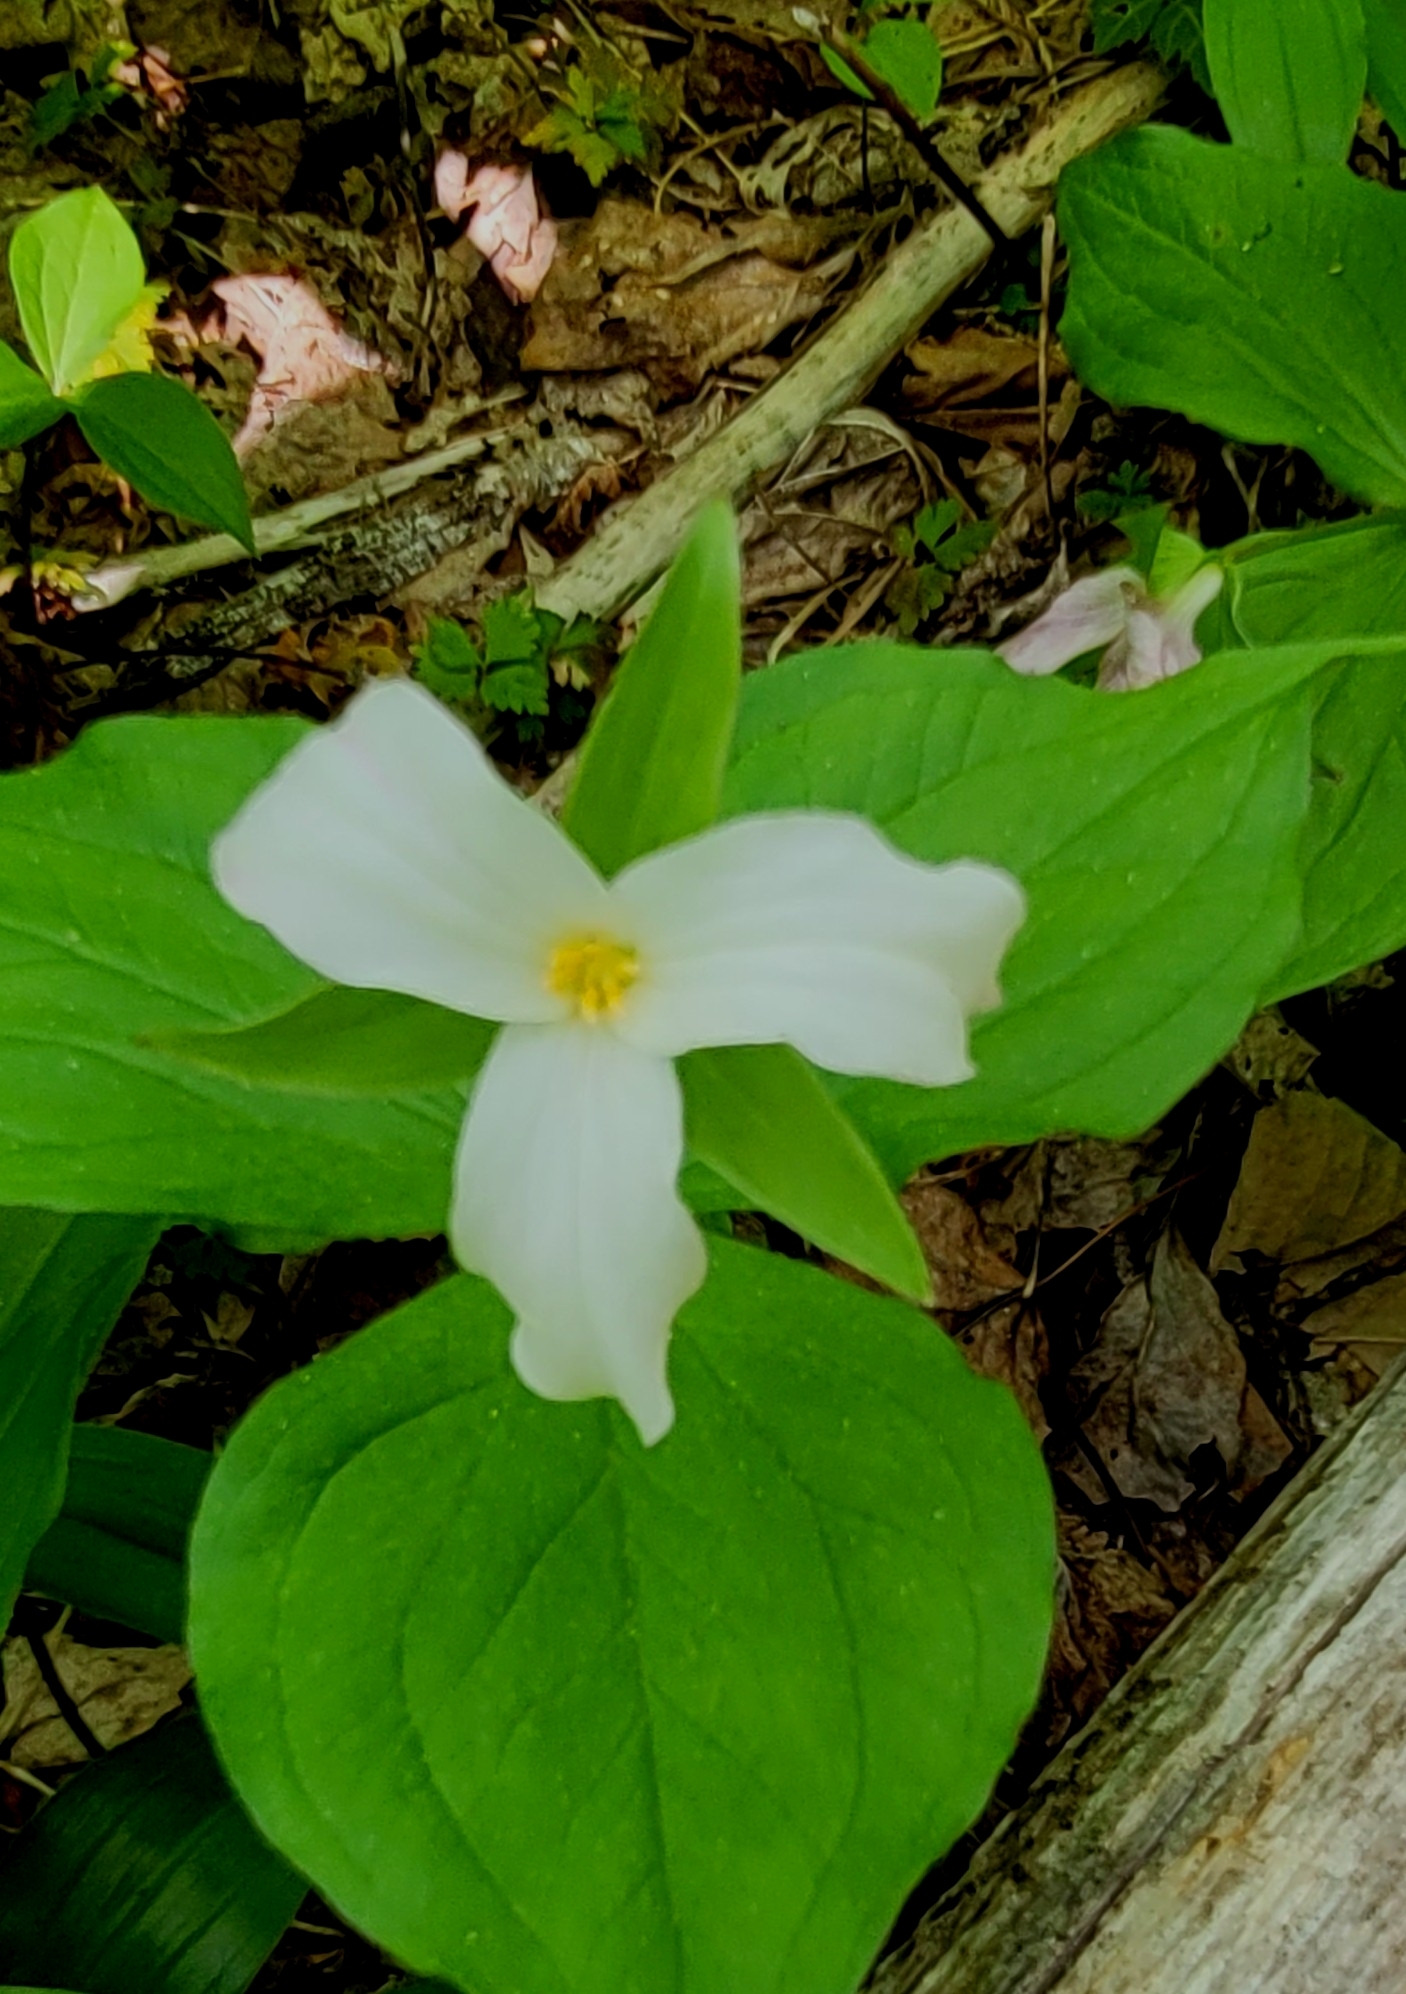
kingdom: Plantae
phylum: Tracheophyta
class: Liliopsida
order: Liliales
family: Melanthiaceae
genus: Trillium
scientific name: Trillium grandiflorum
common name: Great white trillium
